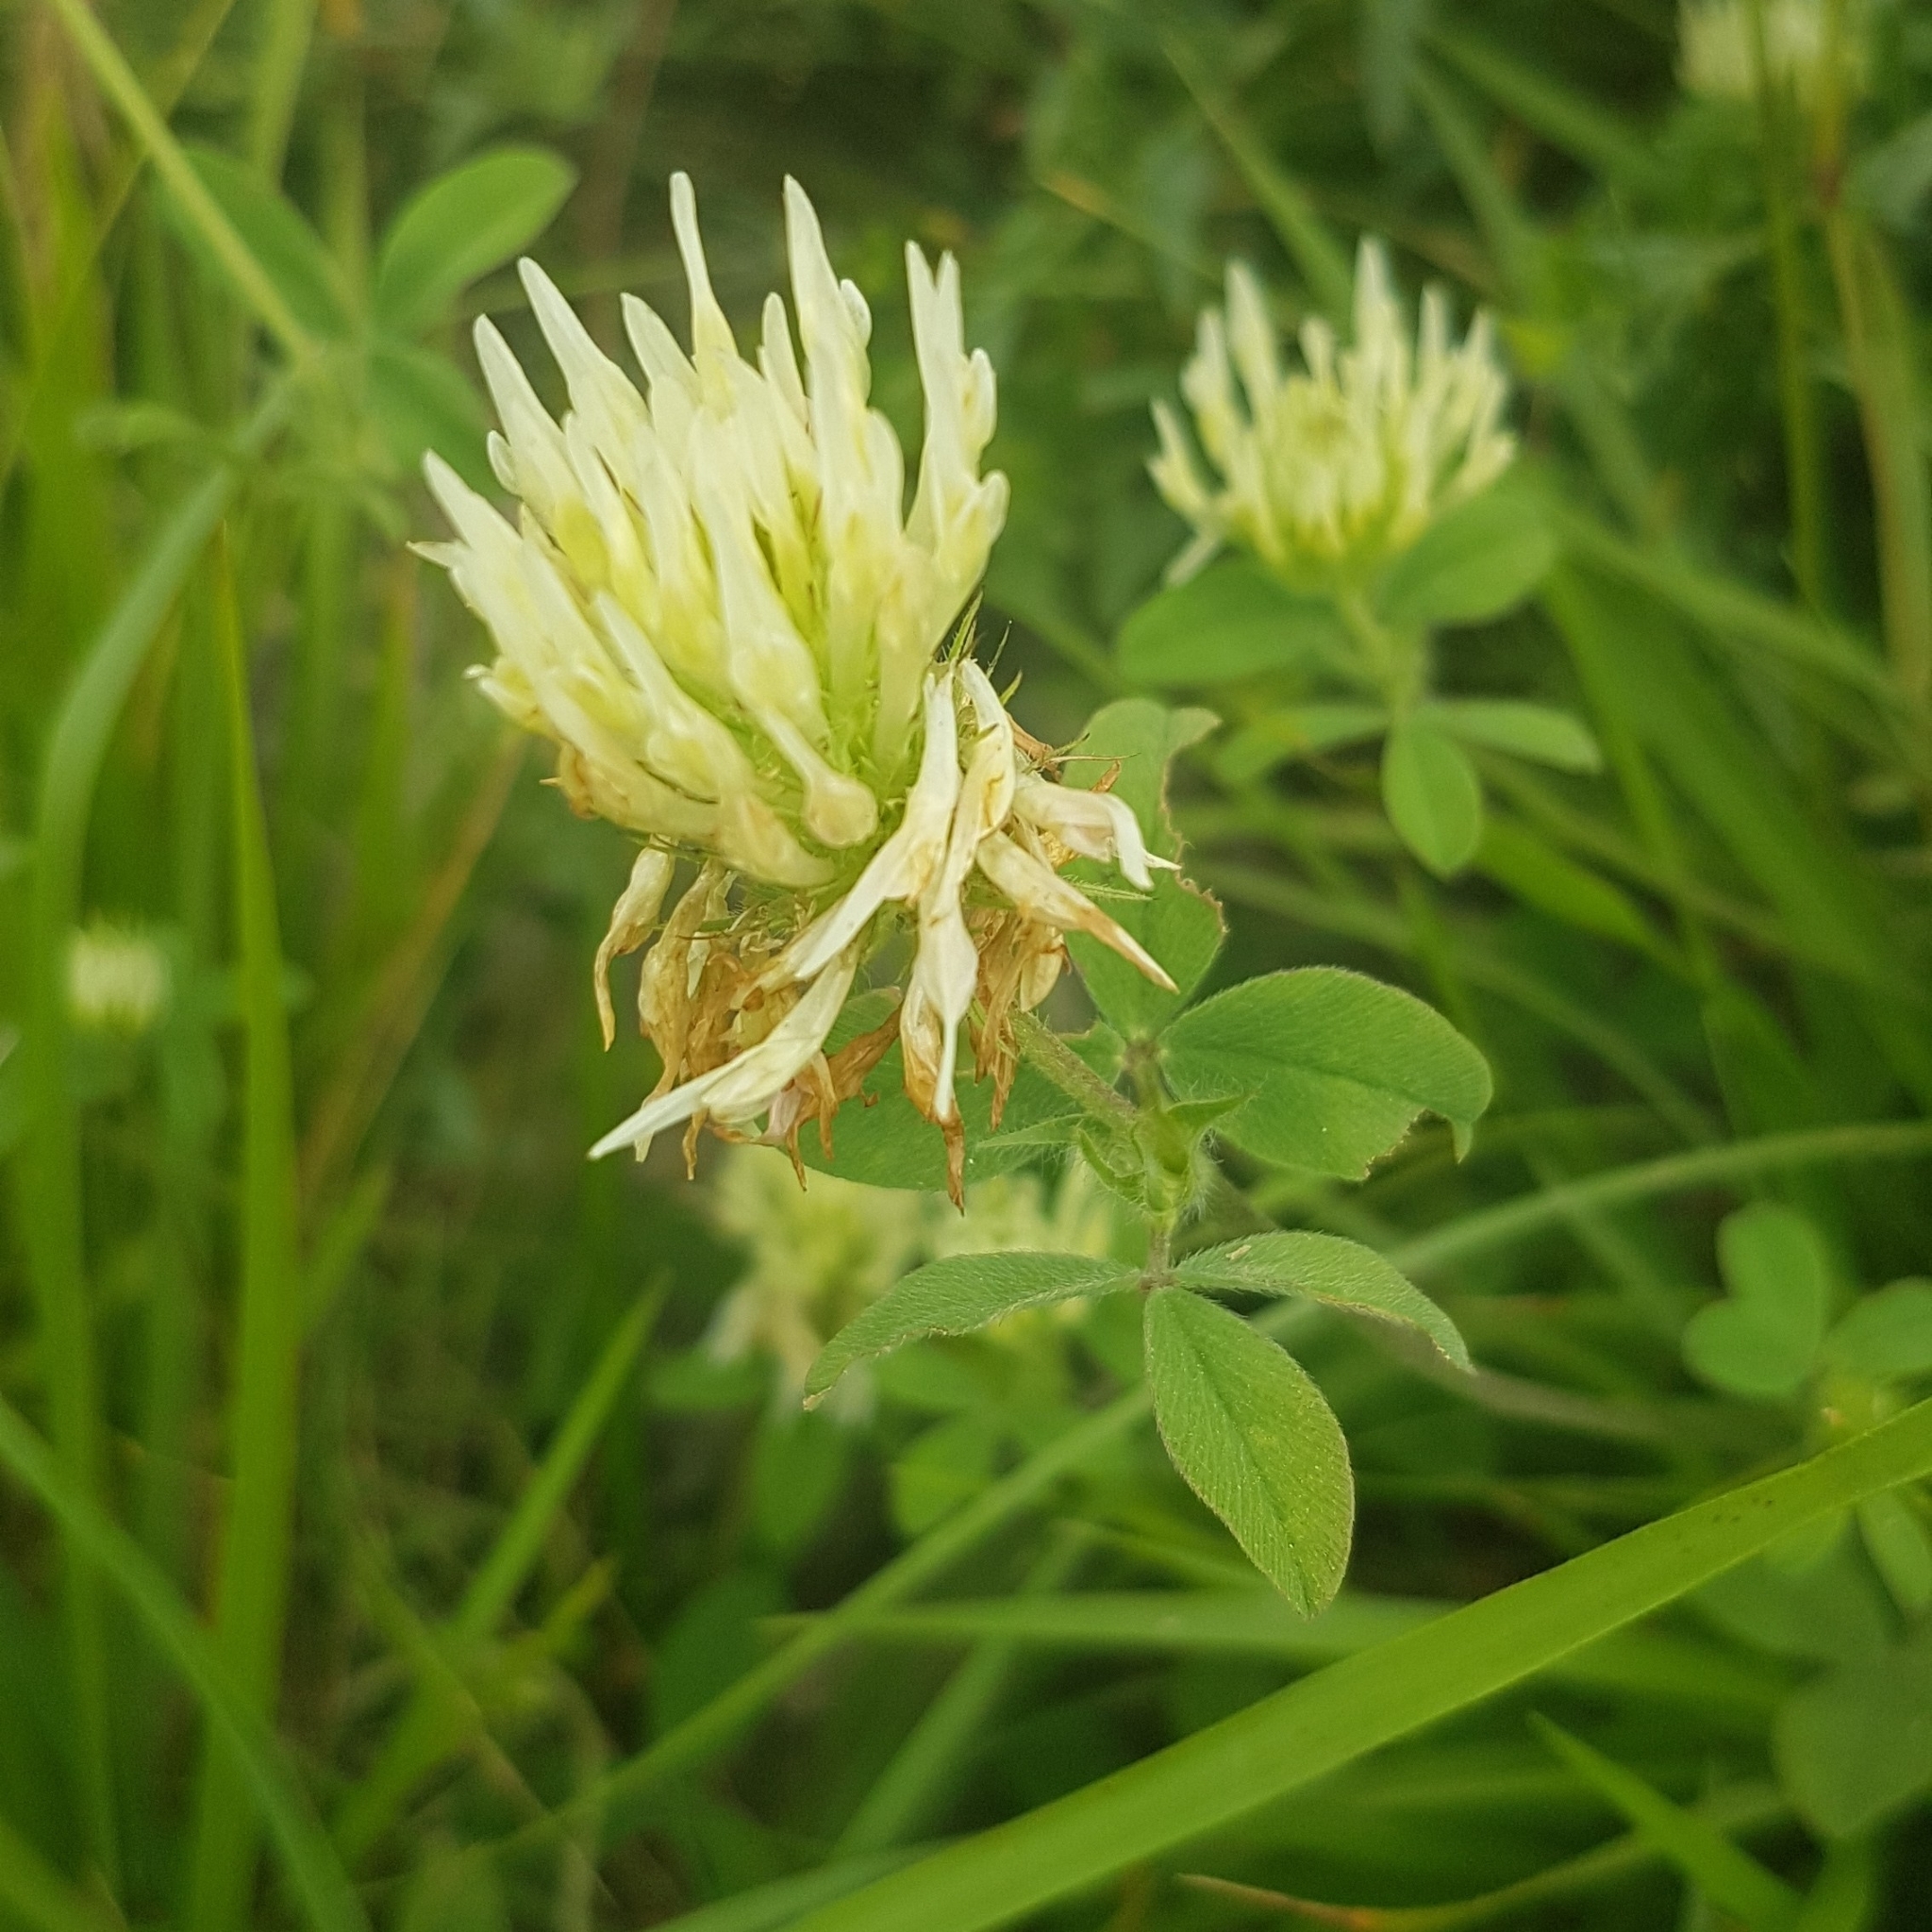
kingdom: Plantae
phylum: Tracheophyta
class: Magnoliopsida
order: Fabales
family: Fabaceae
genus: Trifolium
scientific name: Trifolium ochroleucon
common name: Sulphur clover
